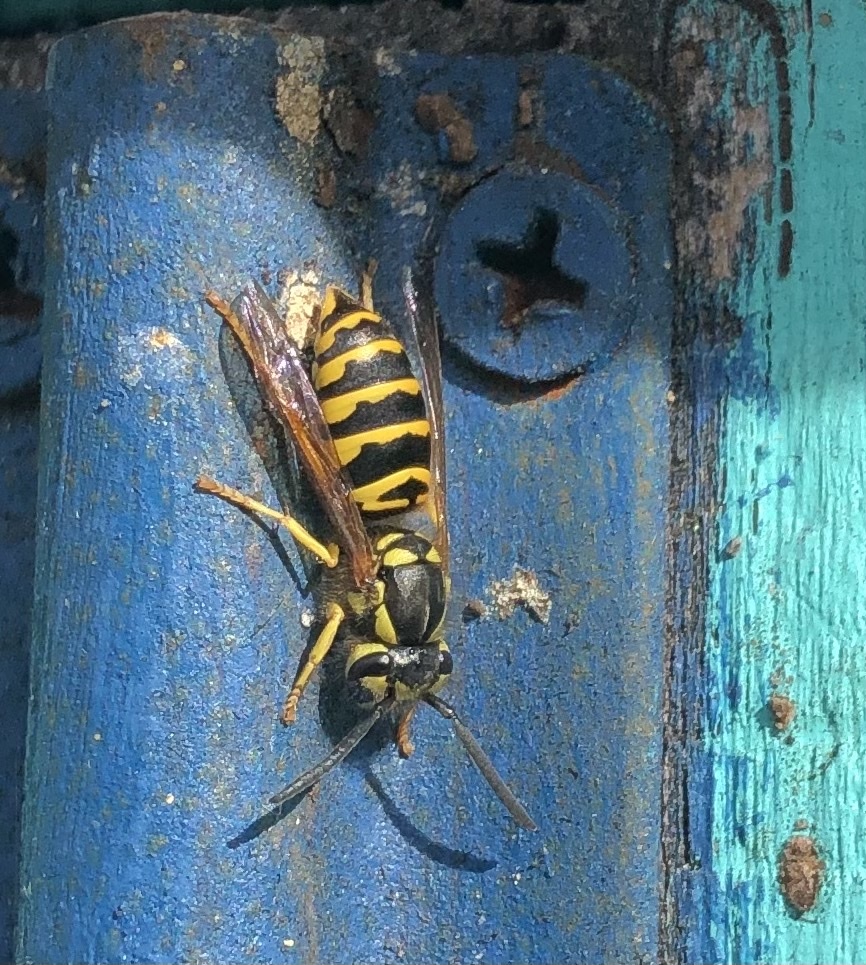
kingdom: Animalia
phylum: Arthropoda
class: Insecta
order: Hymenoptera
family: Vespidae
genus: Vespula
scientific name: Vespula maculifrons
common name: Eastern yellowjacket
